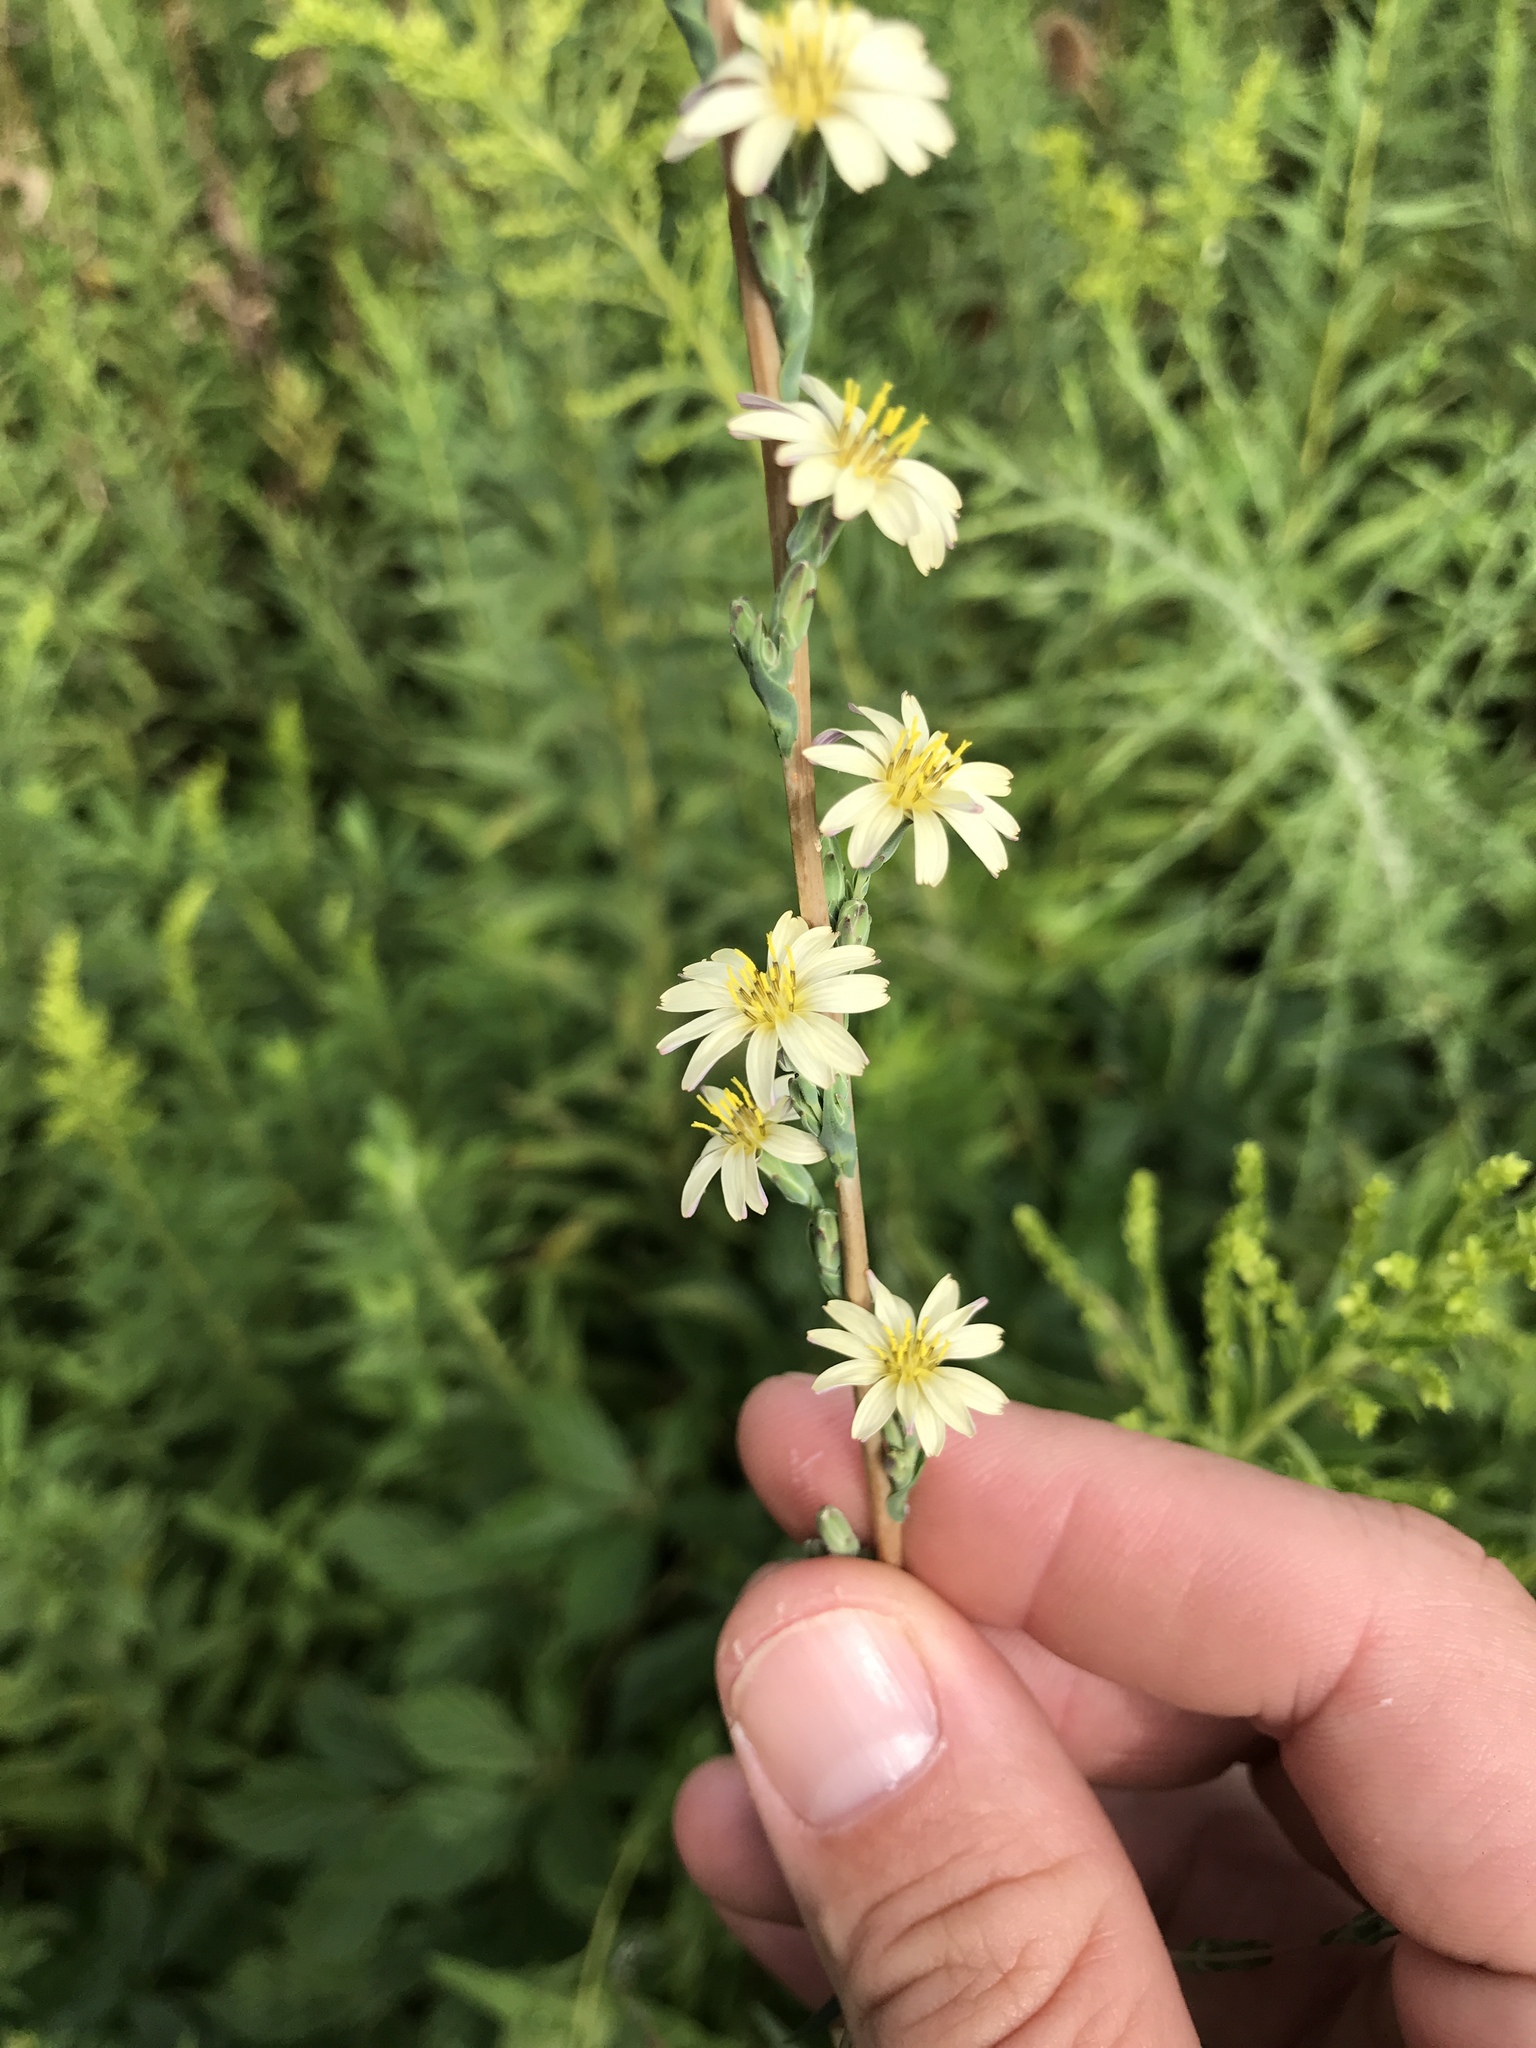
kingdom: Plantae
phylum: Tracheophyta
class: Magnoliopsida
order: Asterales
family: Asteraceae
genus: Lactuca
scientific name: Lactuca saligna
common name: Wild lettuce
